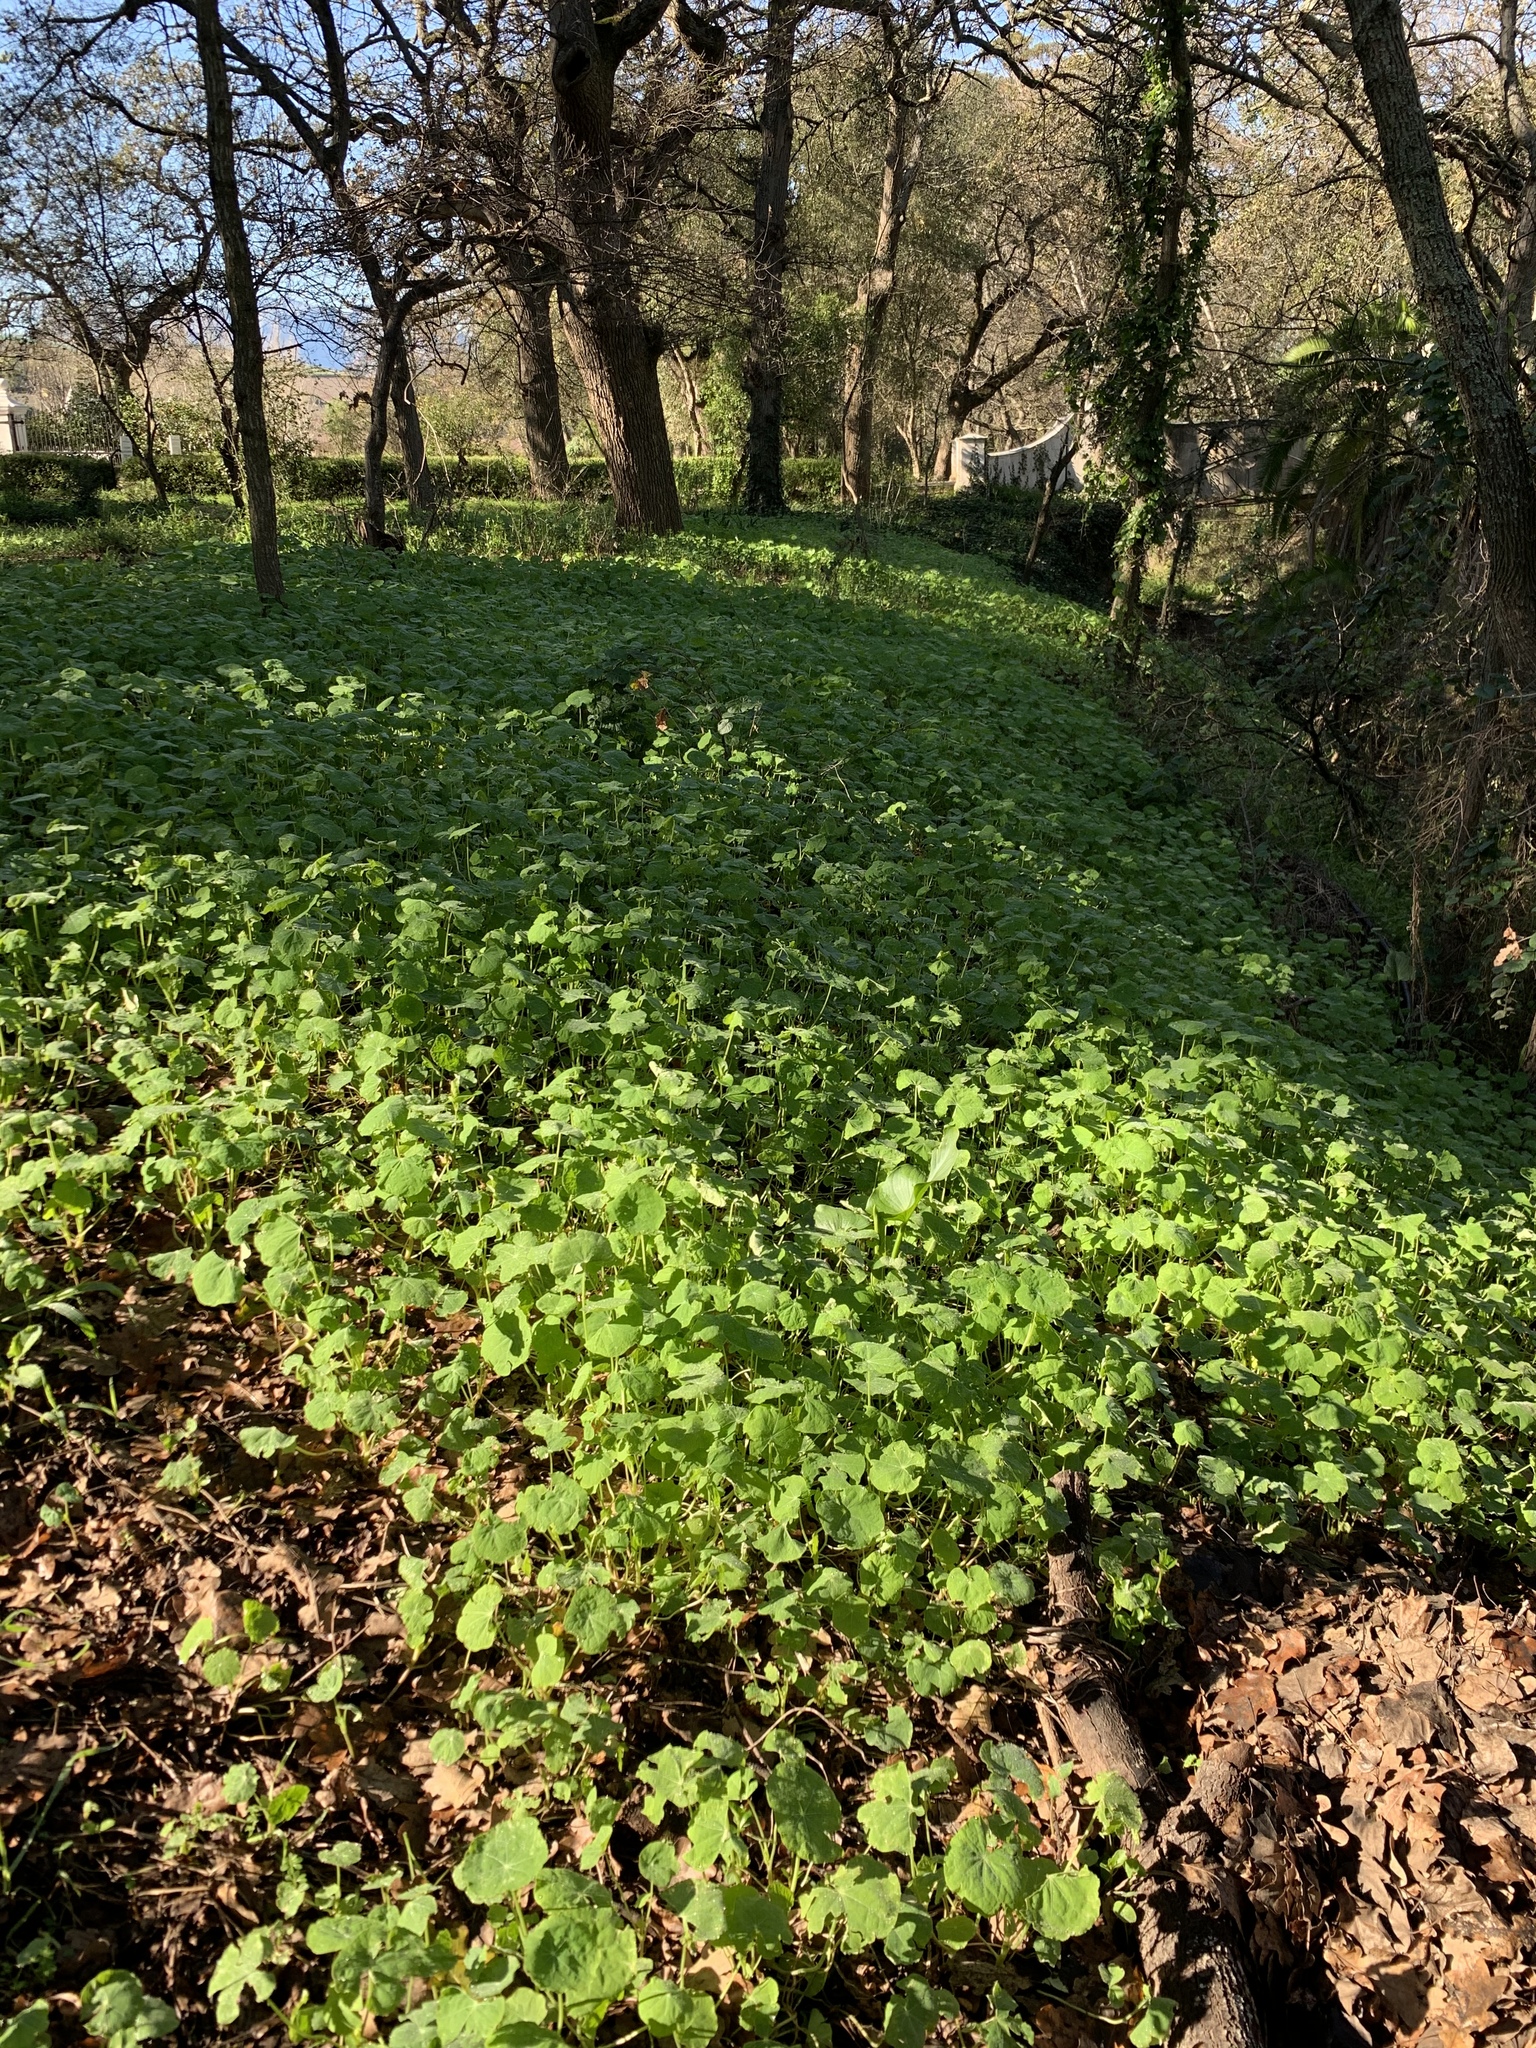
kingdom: Plantae
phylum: Tracheophyta
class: Magnoliopsida
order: Brassicales
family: Tropaeolaceae
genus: Tropaeolum
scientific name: Tropaeolum majus
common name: Nasturtium
